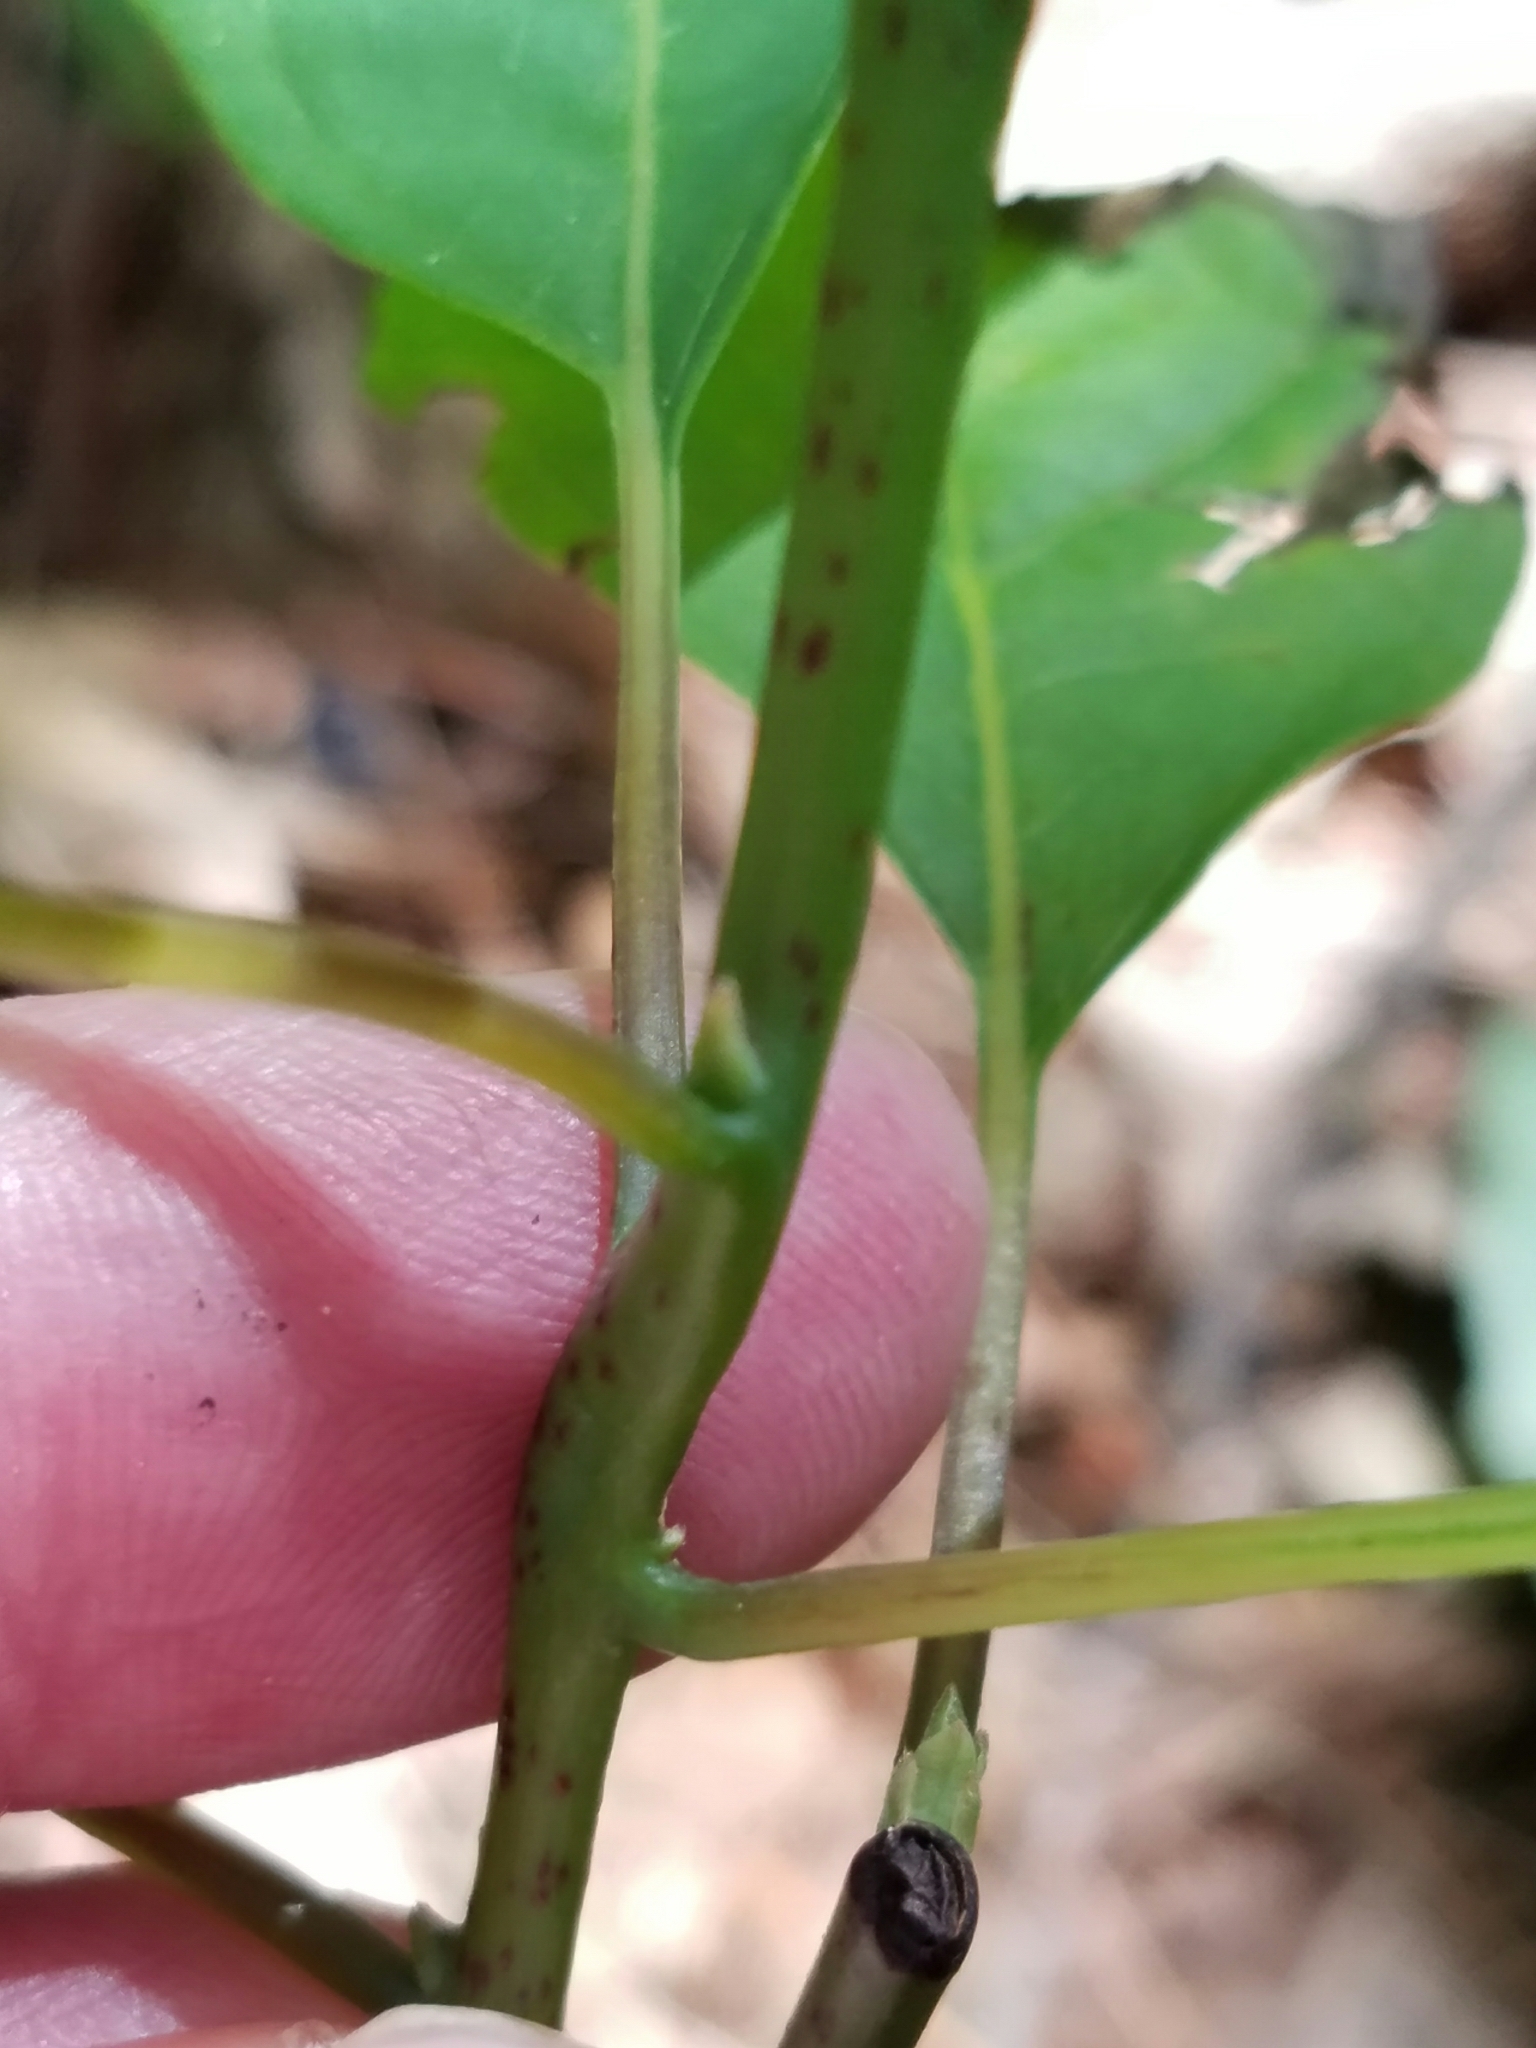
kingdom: Plantae
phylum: Tracheophyta
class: Magnoliopsida
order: Laurales
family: Lauraceae
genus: Sassafras
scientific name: Sassafras albidum
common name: Sassafras
